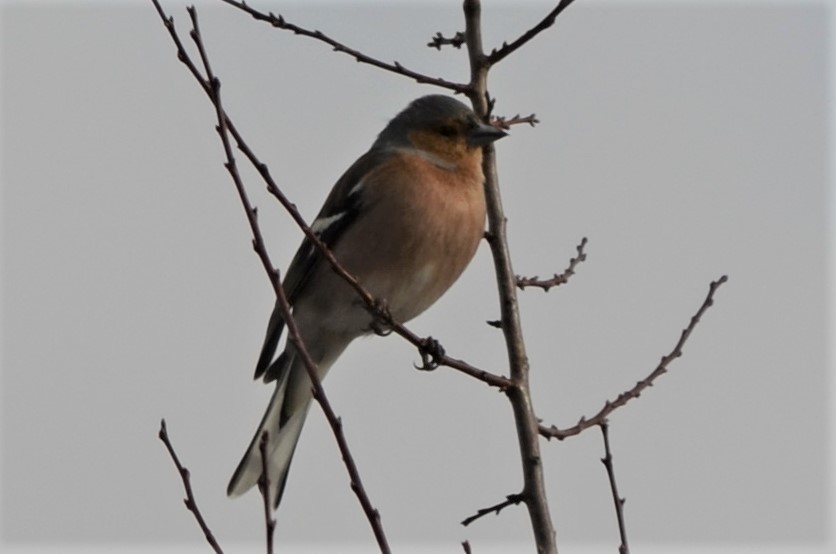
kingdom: Animalia
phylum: Chordata
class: Aves
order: Passeriformes
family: Fringillidae
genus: Fringilla
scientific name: Fringilla coelebs
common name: Common chaffinch
